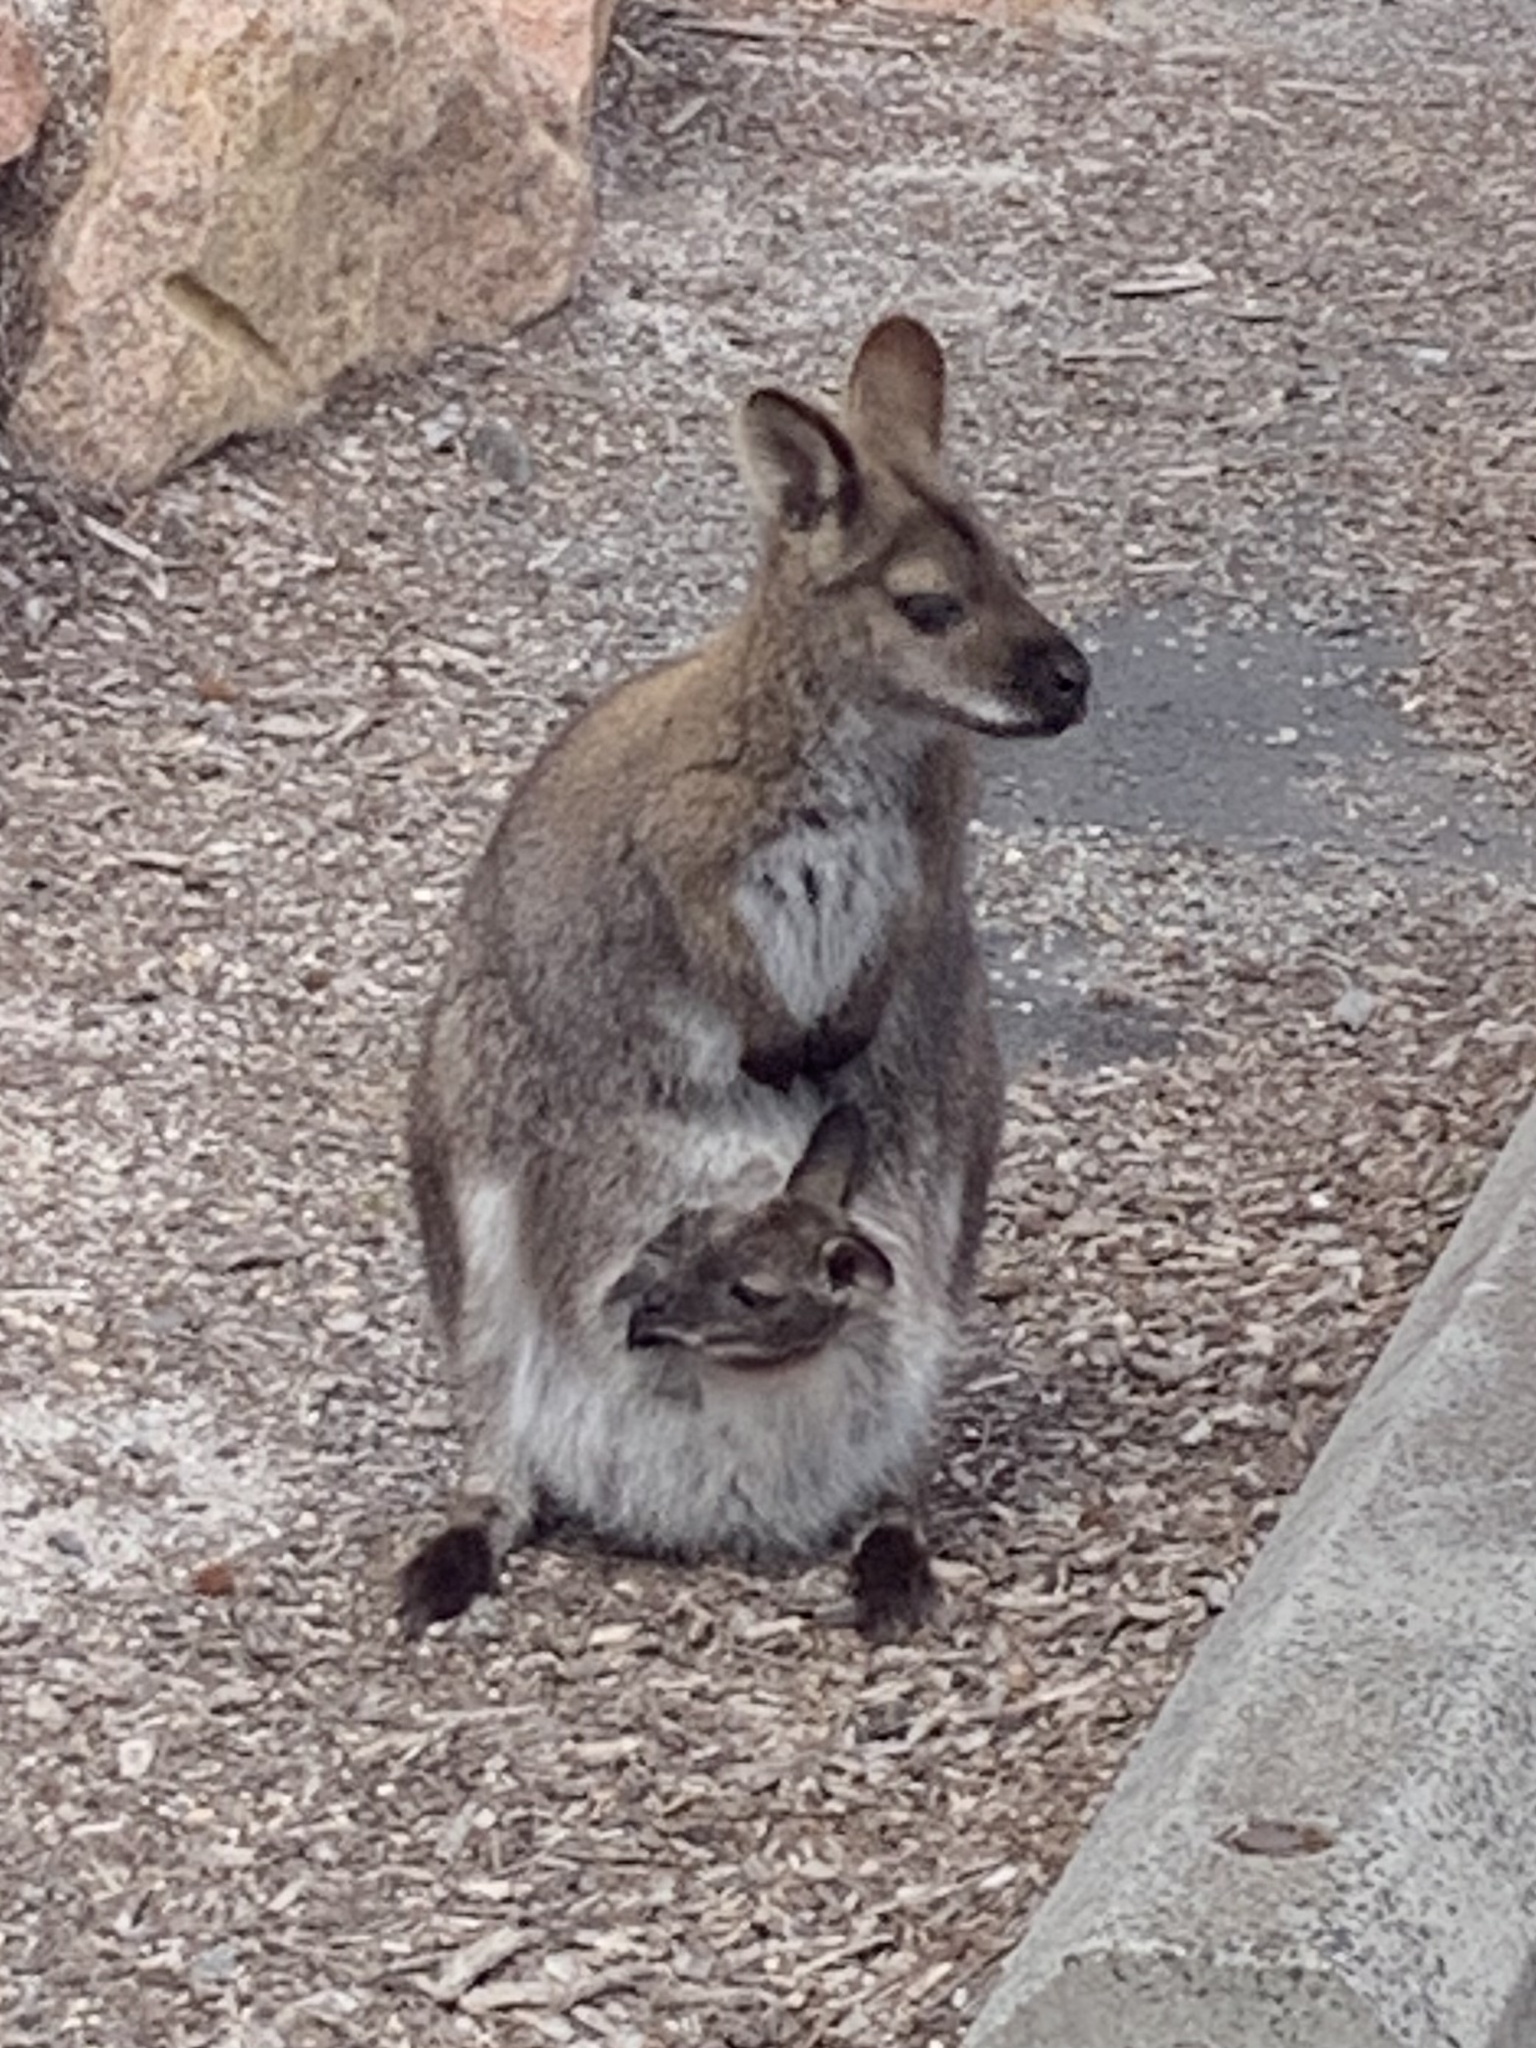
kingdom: Animalia
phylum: Chordata
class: Mammalia
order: Diprotodontia
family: Macropodidae
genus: Notamacropus
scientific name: Notamacropus rufogriseus
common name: Red-necked wallaby
